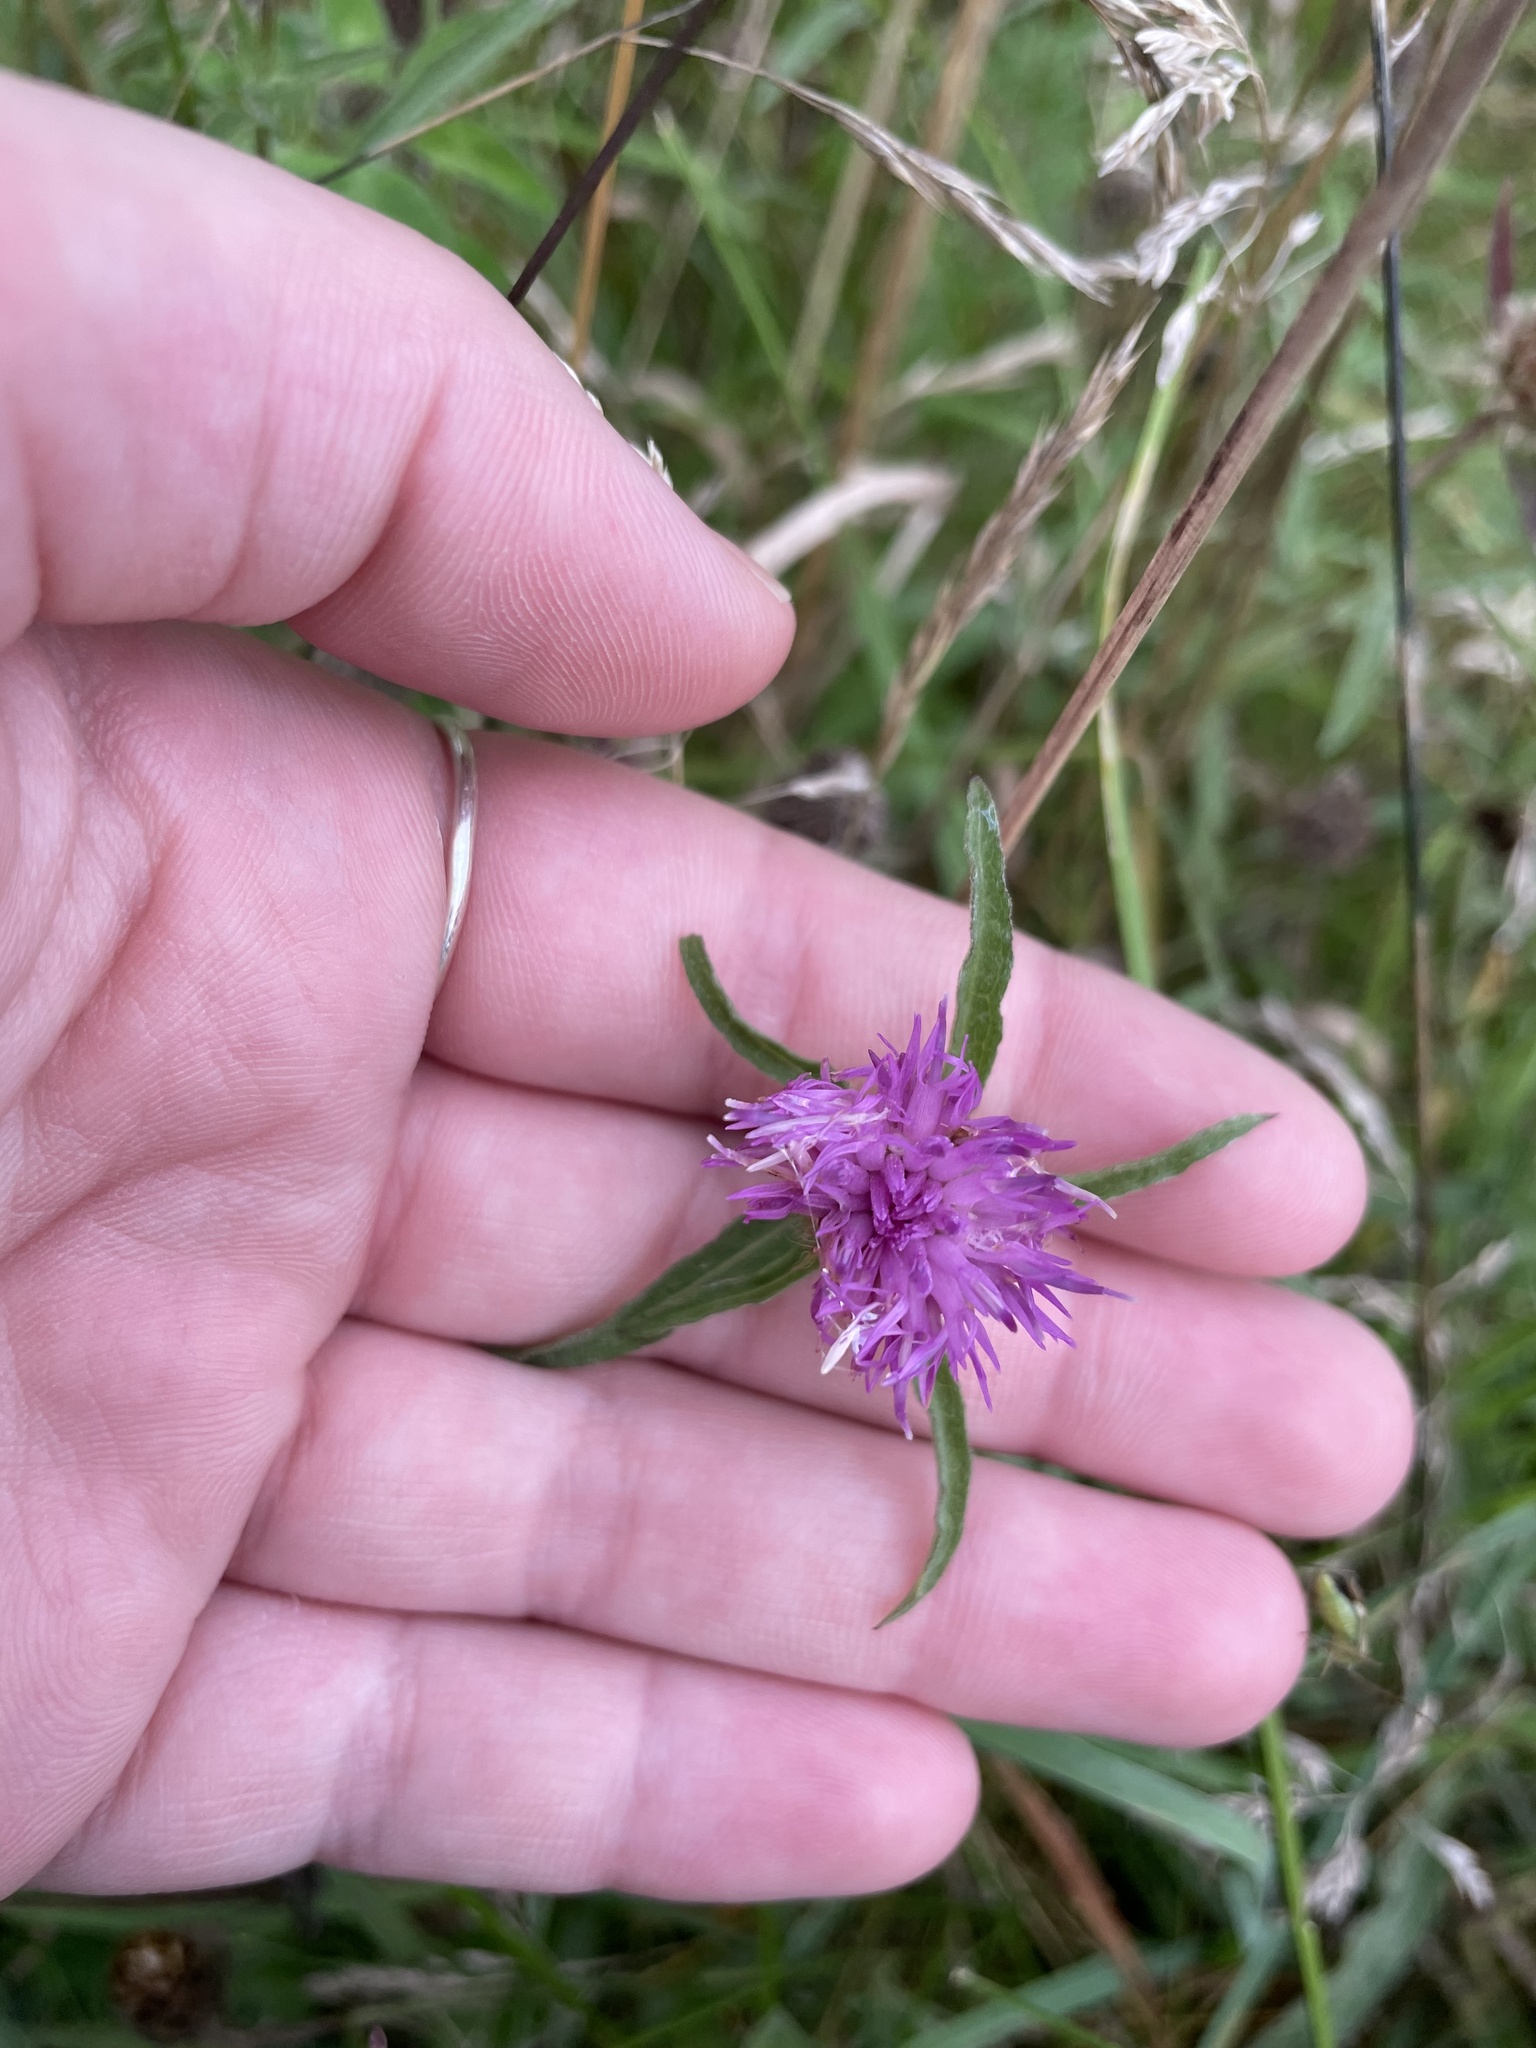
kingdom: Plantae
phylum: Tracheophyta
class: Magnoliopsida
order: Asterales
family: Asteraceae
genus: Centaurea
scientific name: Centaurea nigra
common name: Lesser knapweed
